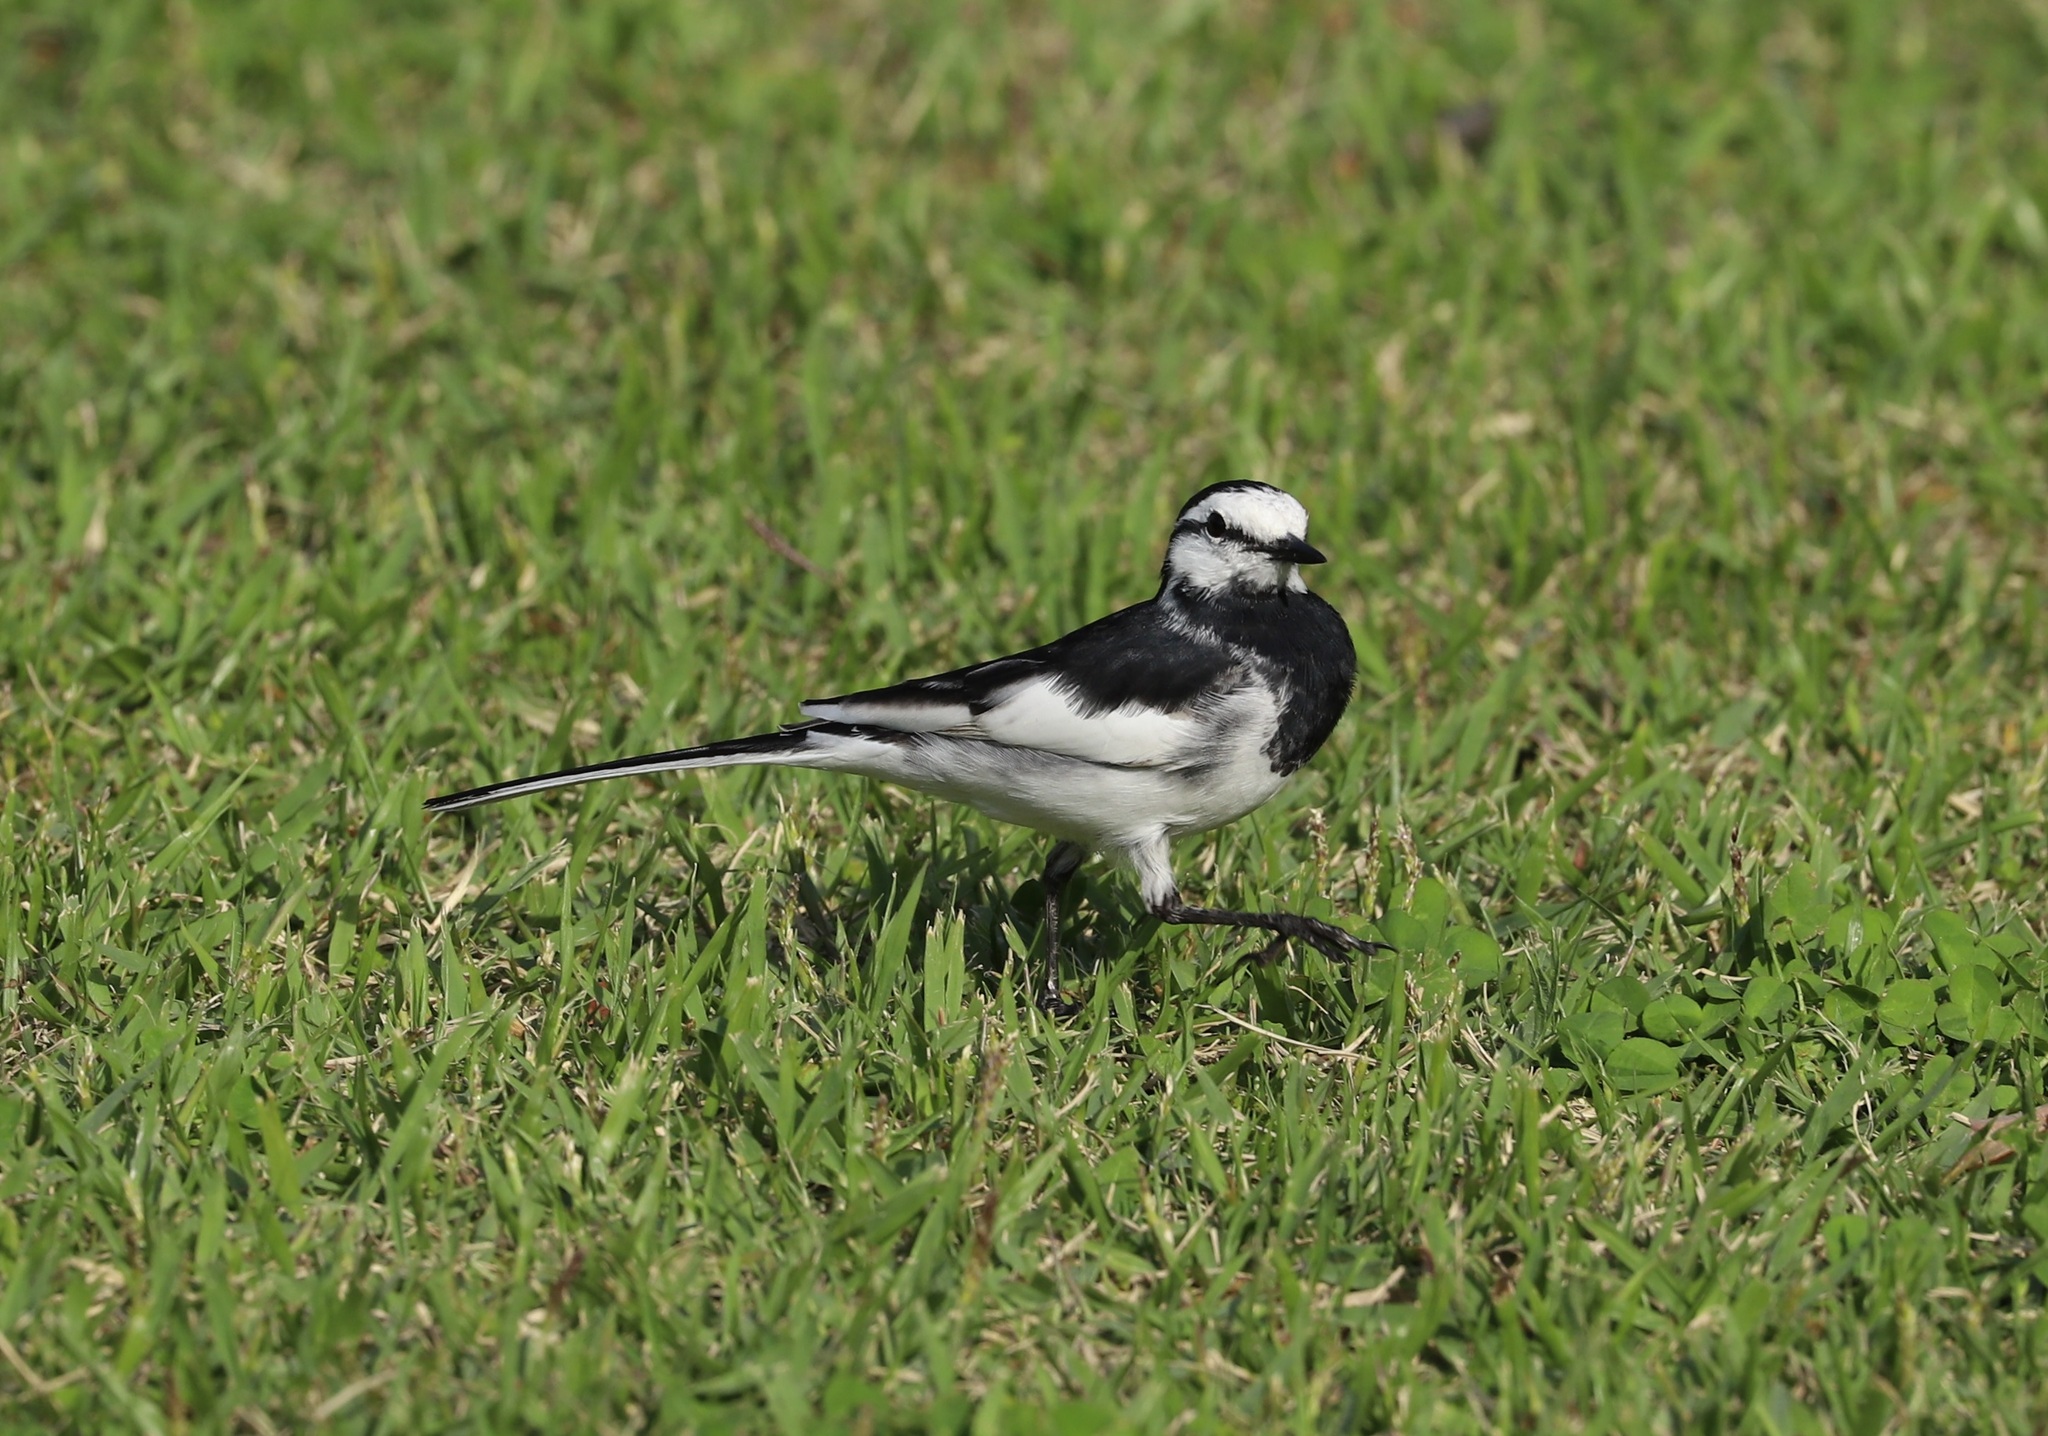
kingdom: Animalia
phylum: Chordata
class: Aves
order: Passeriformes
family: Motacillidae
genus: Motacilla
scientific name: Motacilla alba
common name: White wagtail
